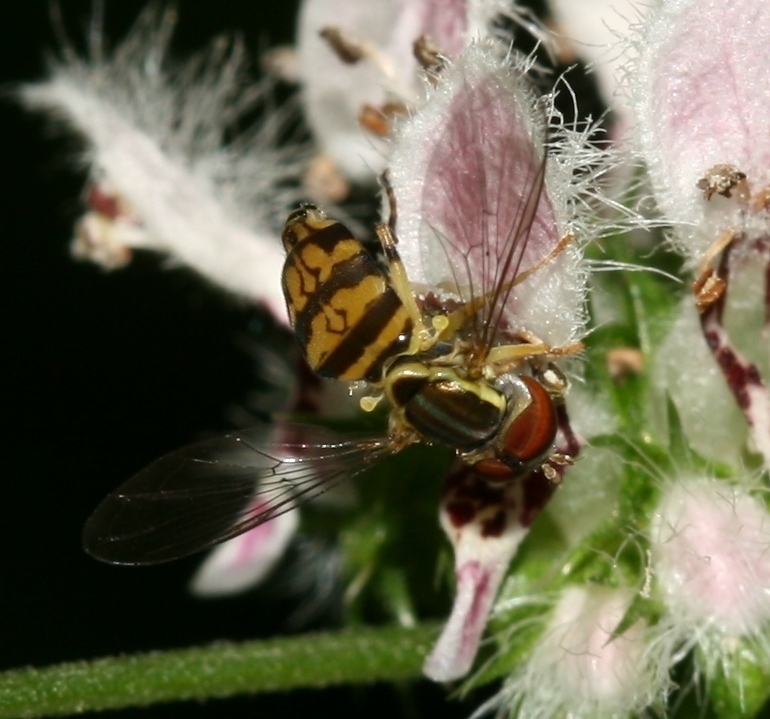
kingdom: Animalia
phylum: Arthropoda
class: Insecta
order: Diptera
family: Syrphidae
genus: Toxomerus
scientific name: Toxomerus geminatus
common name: Eastern calligrapher
